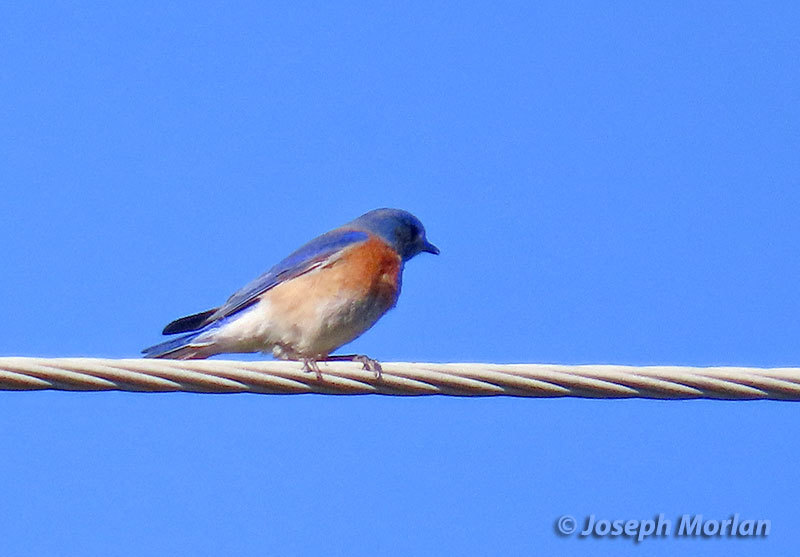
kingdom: Animalia
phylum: Chordata
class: Aves
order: Passeriformes
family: Turdidae
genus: Sialia
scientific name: Sialia mexicana
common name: Western bluebird
